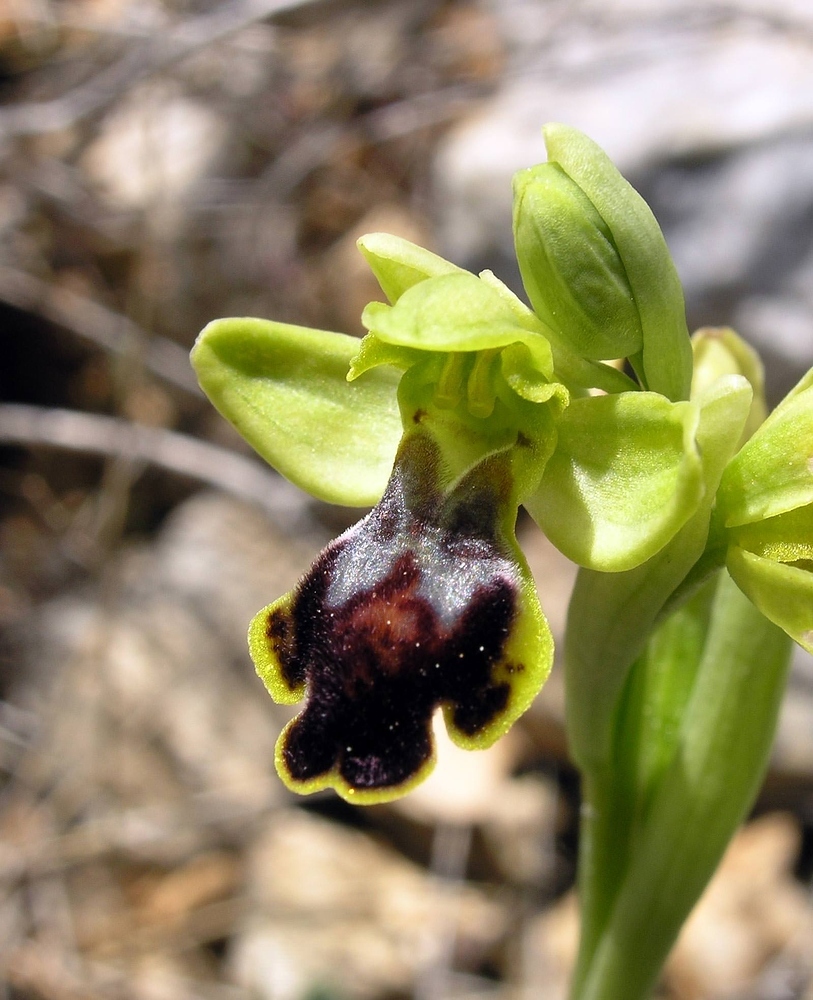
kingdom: Plantae
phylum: Tracheophyta
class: Liliopsida
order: Asparagales
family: Orchidaceae
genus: Ophrys
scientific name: Ophrys fusca
